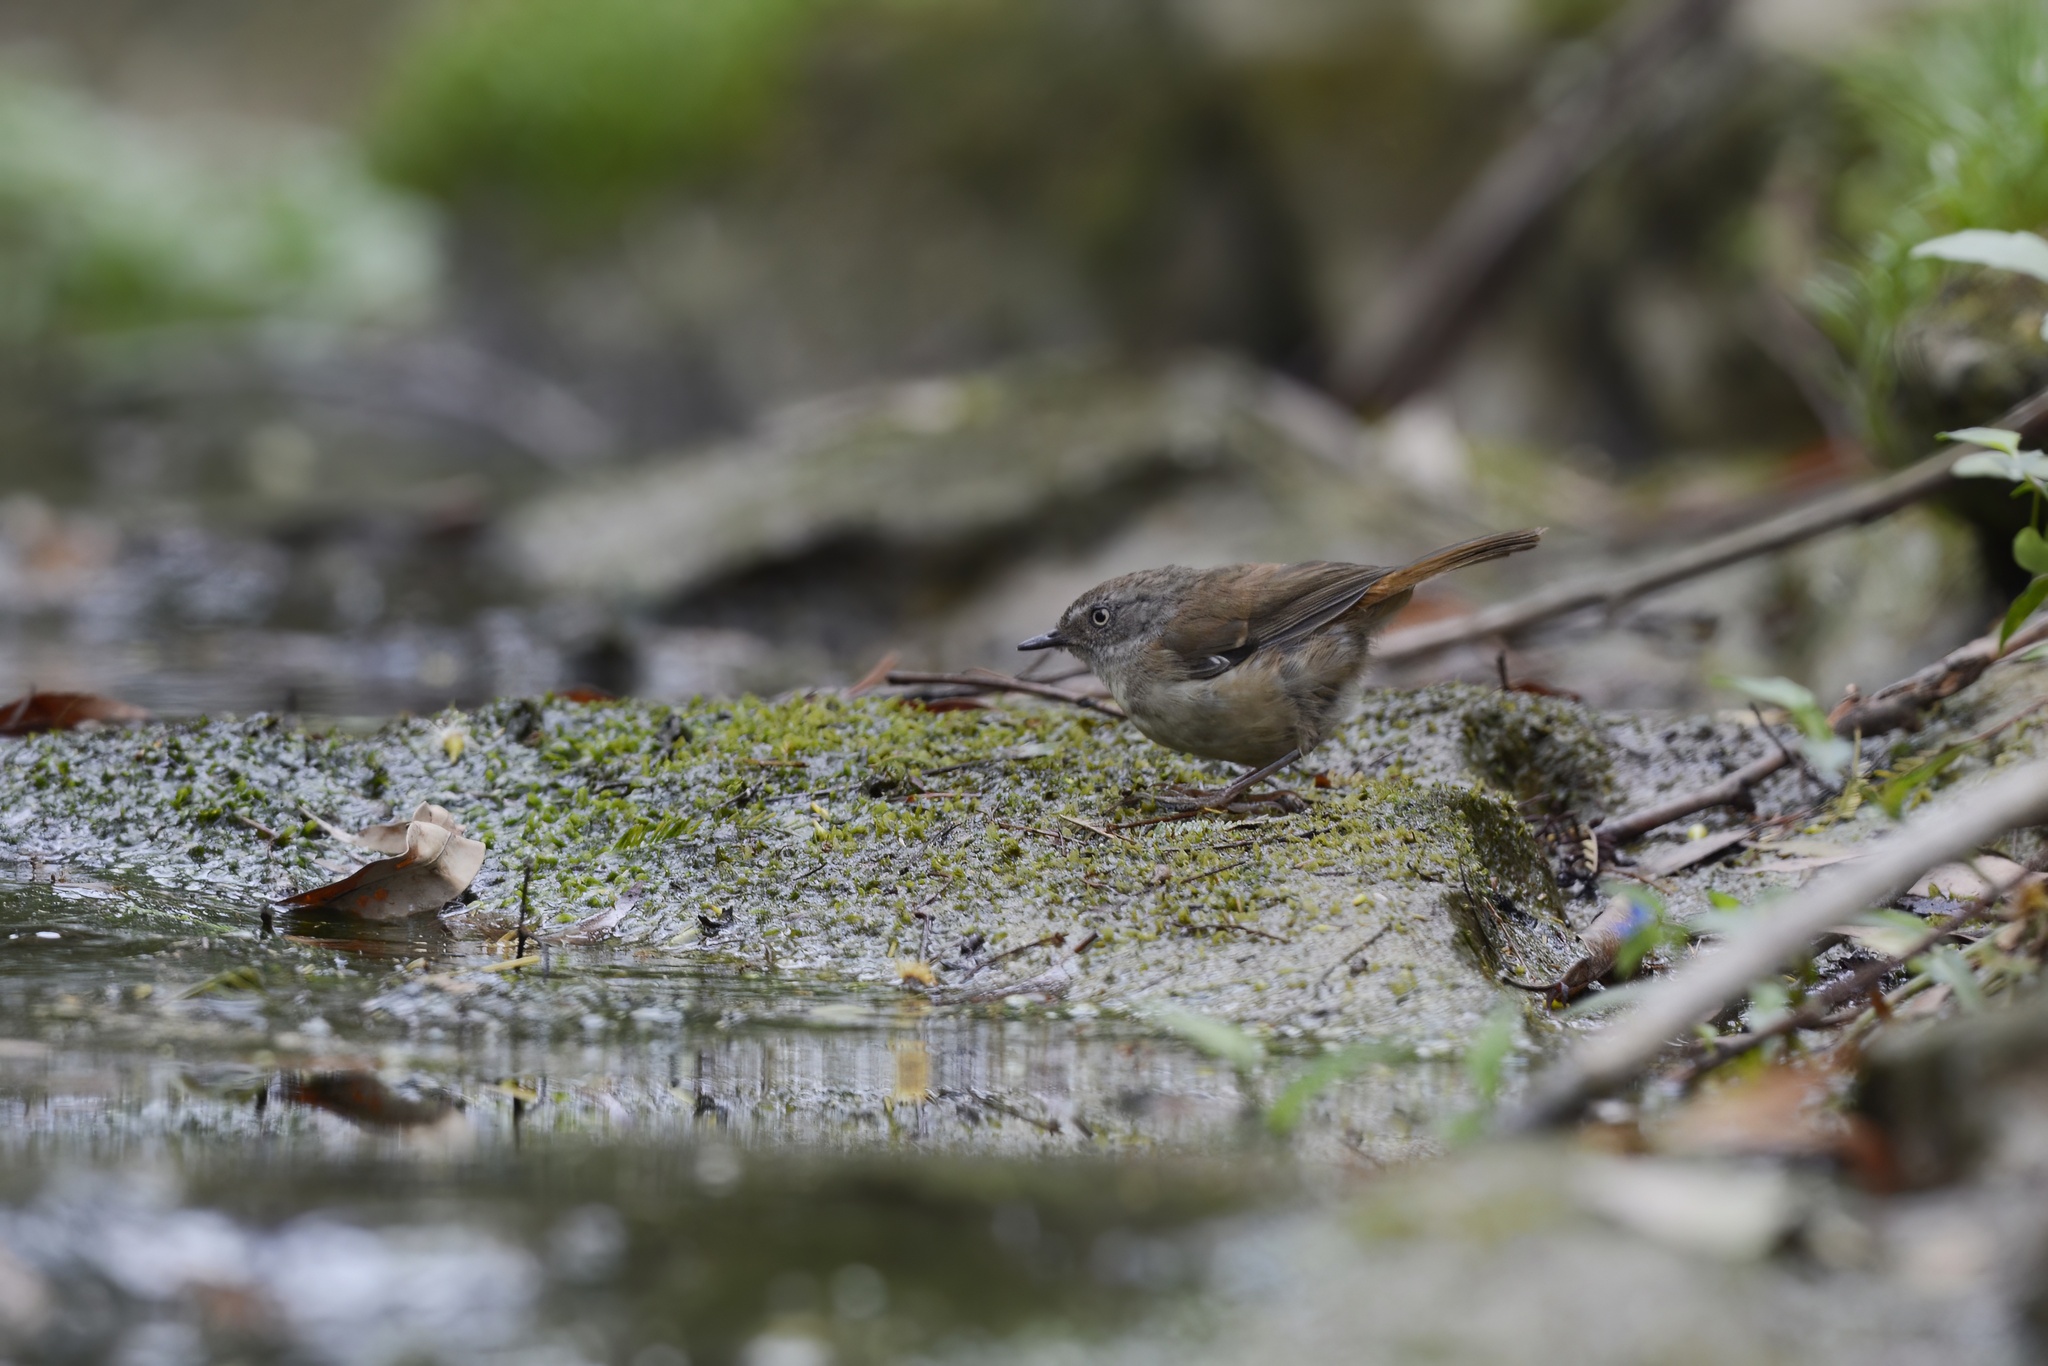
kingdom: Animalia
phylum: Chordata
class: Aves
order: Passeriformes
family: Acanthizidae
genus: Sericornis
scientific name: Sericornis frontalis
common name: White-browed scrubwren
